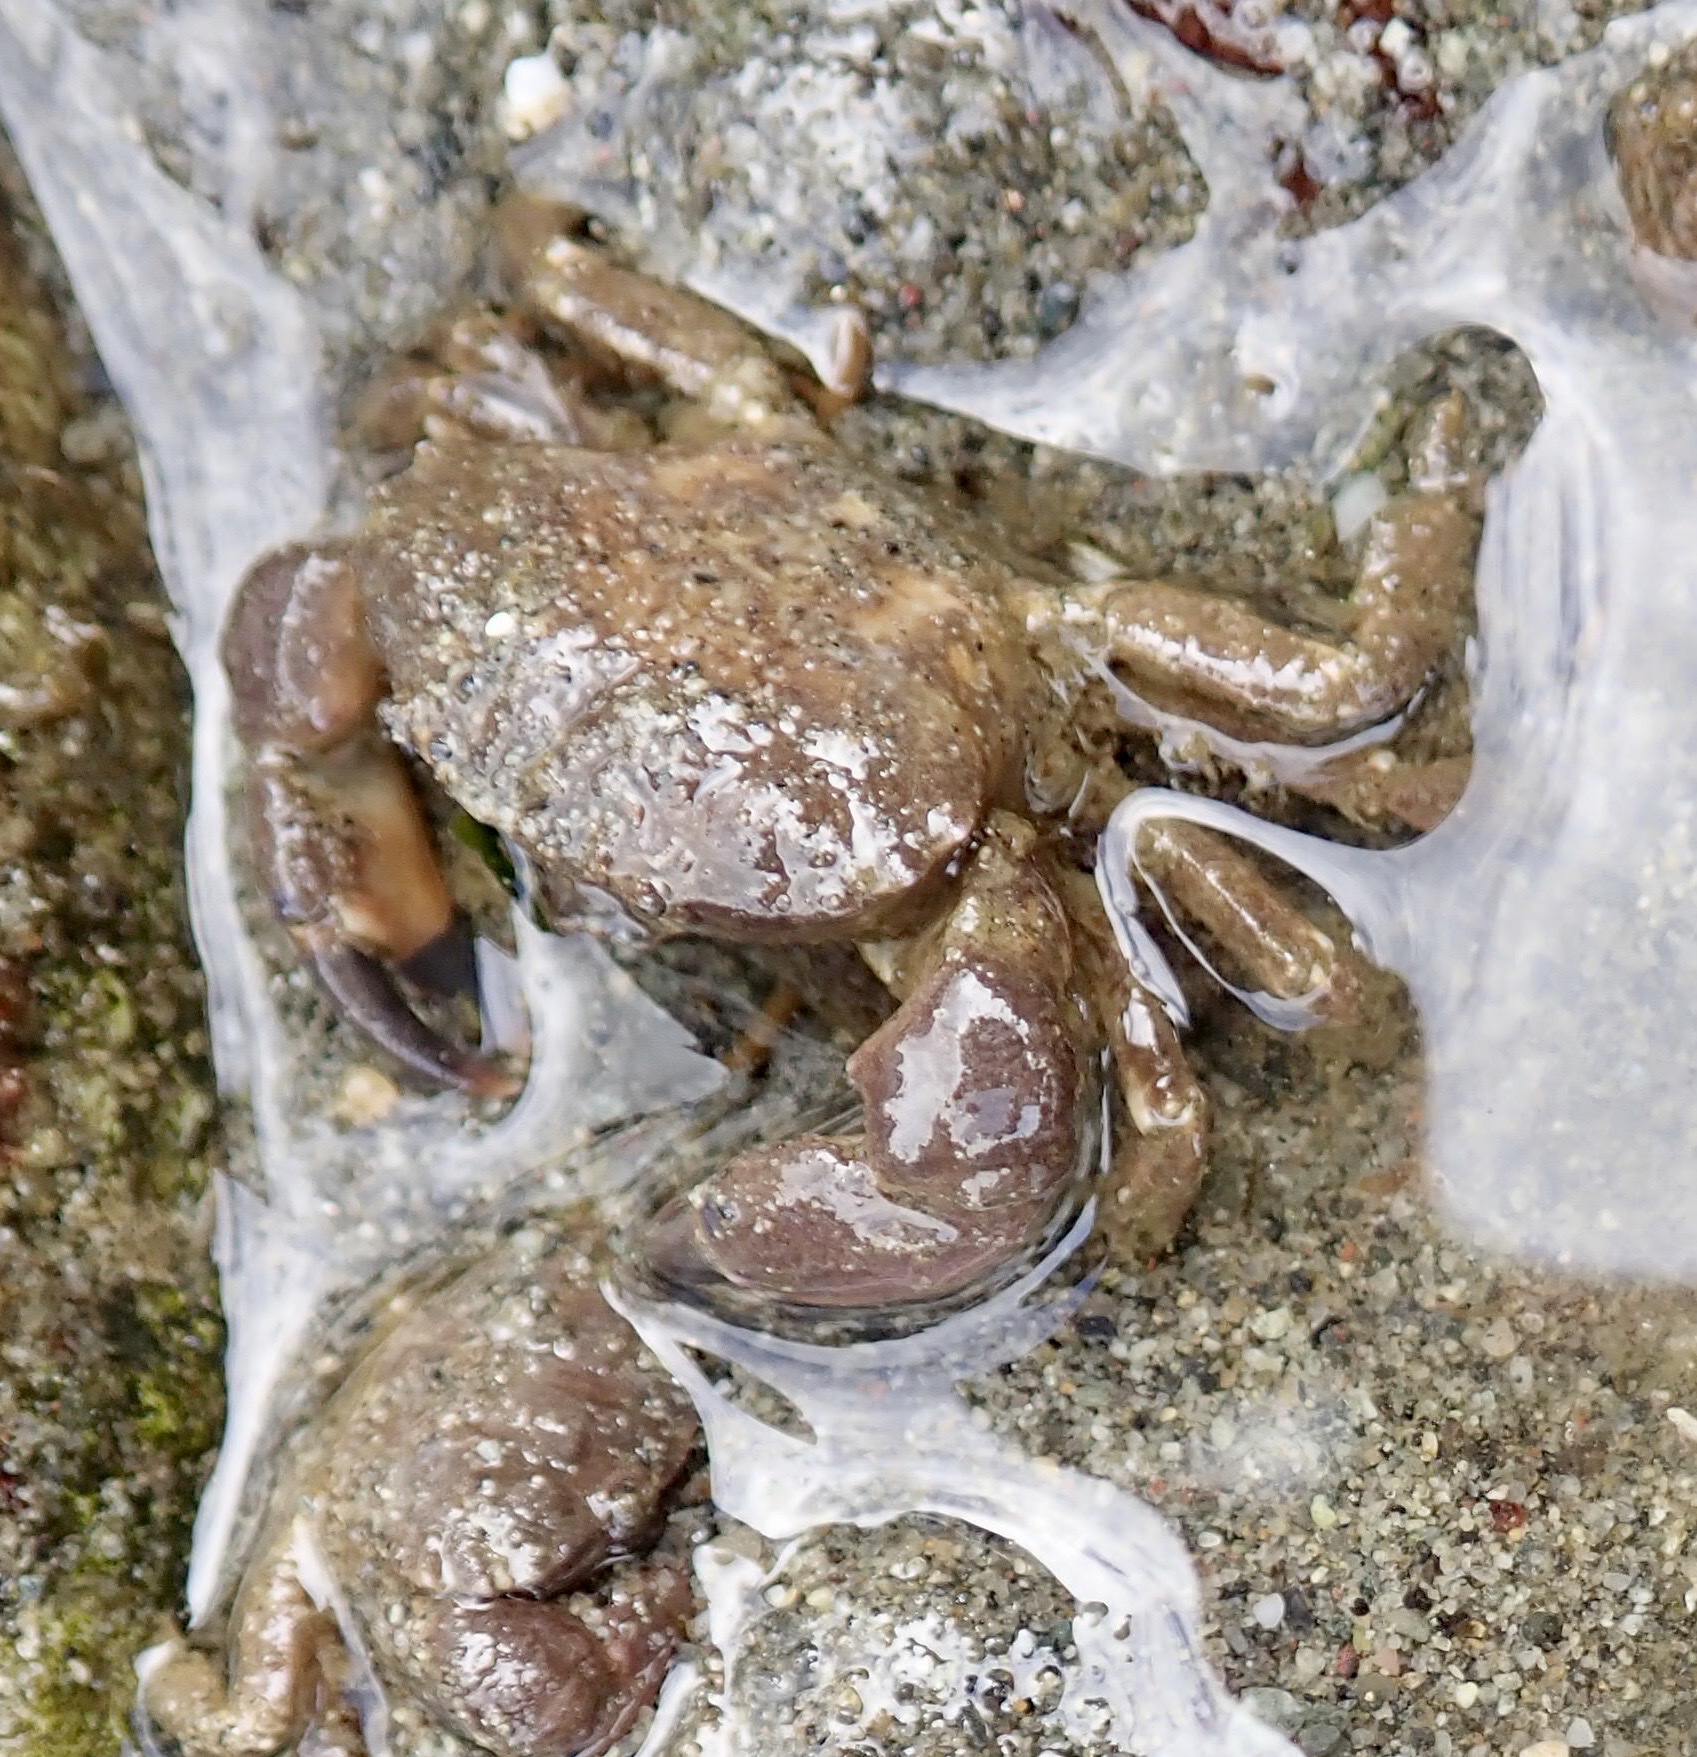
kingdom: Animalia
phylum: Arthropoda
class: Malacostraca
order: Decapoda
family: Panopeidae
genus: Lophopanopeus
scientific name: Lophopanopeus bellus
